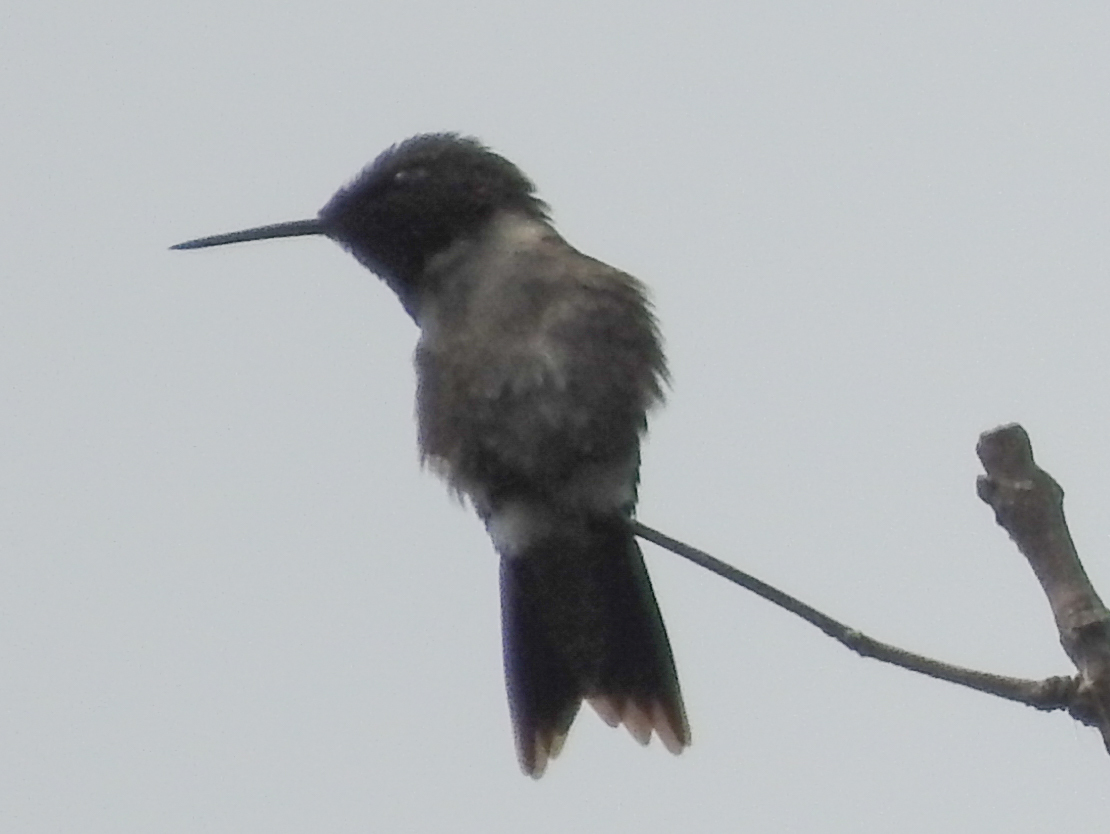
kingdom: Animalia
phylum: Chordata
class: Aves
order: Apodiformes
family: Trochilidae
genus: Archilochus
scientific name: Archilochus colubris
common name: Ruby-throated hummingbird
